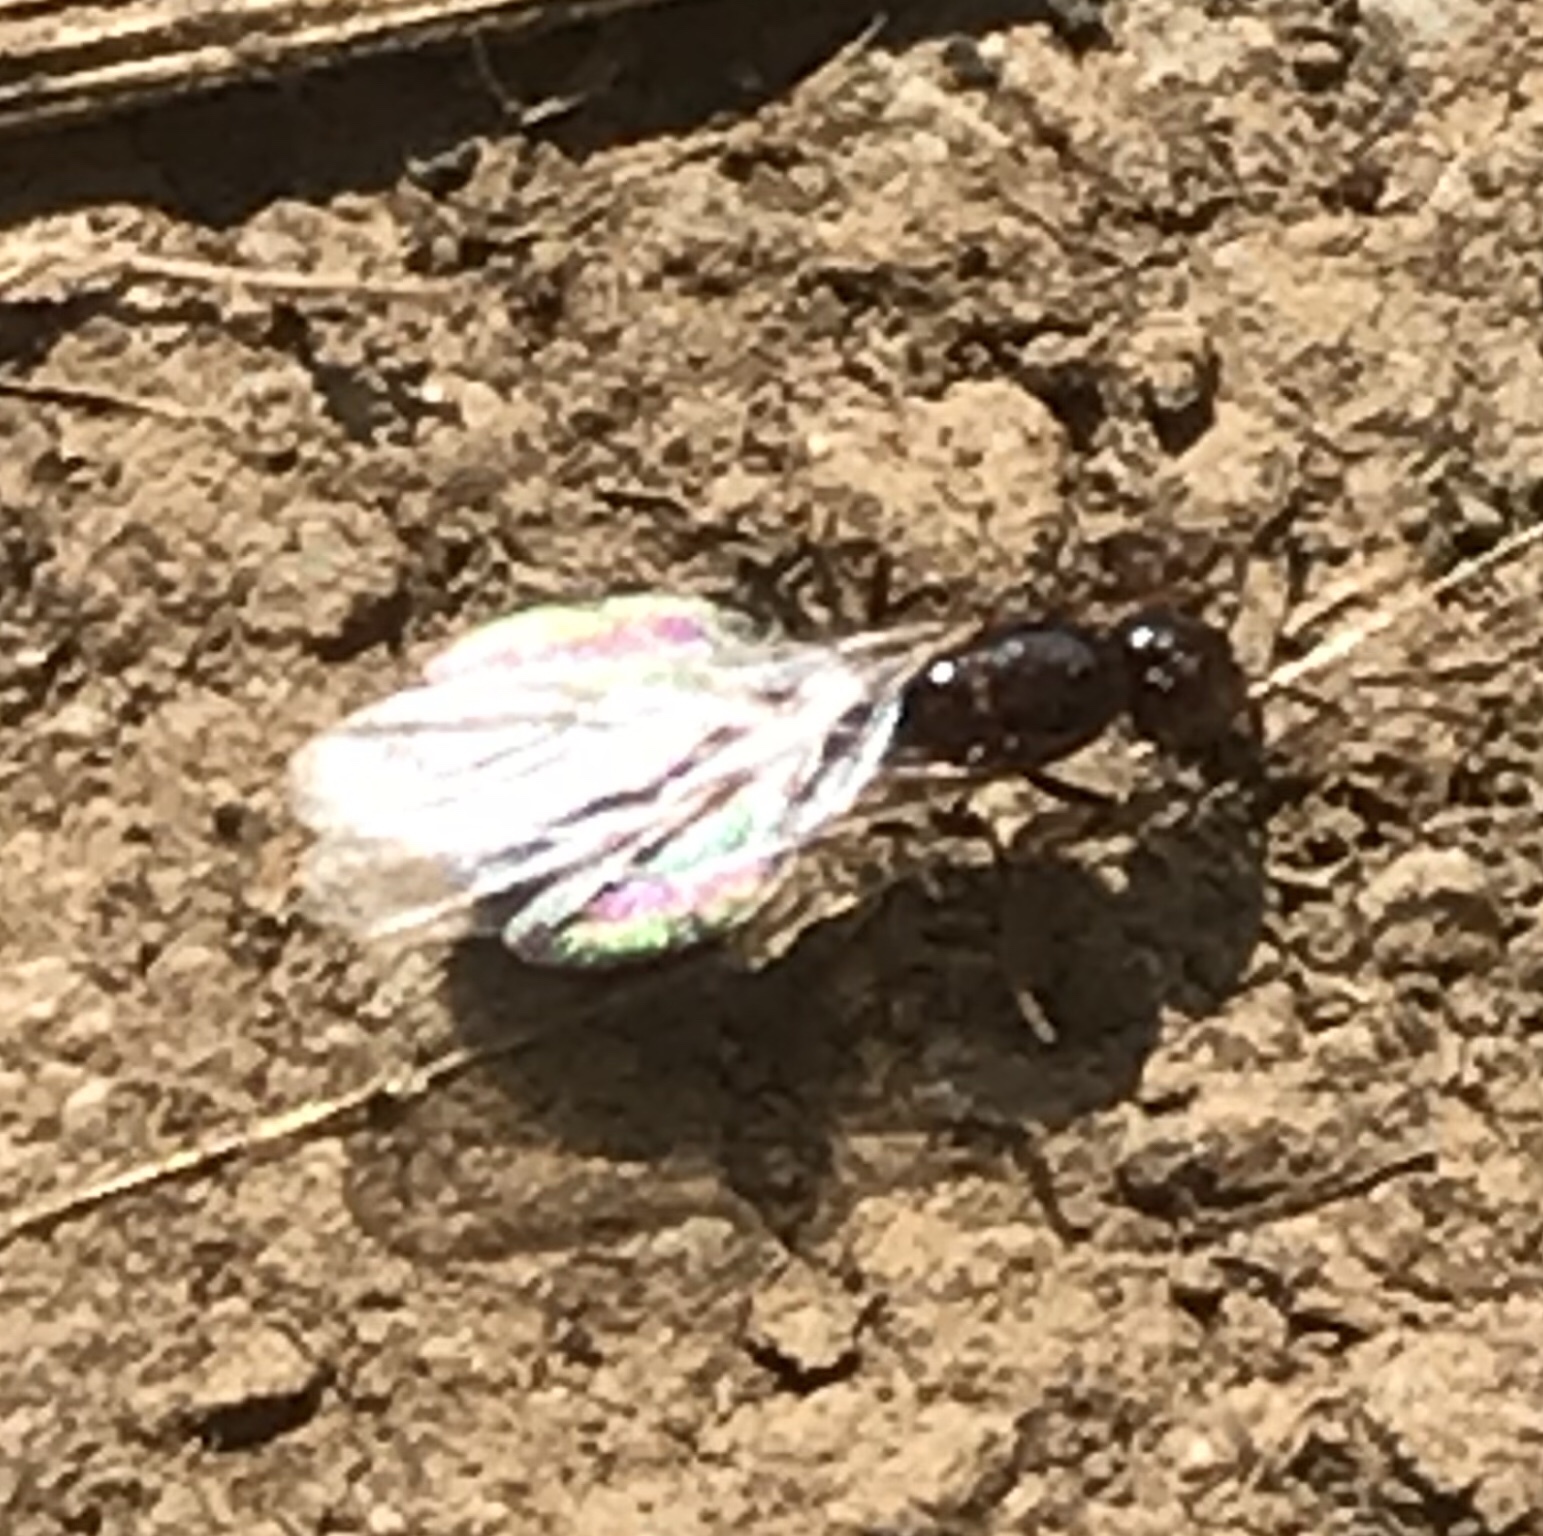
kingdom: Animalia
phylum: Arthropoda
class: Insecta
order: Hymenoptera
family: Formicidae
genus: Solenopsis
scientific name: Solenopsis
